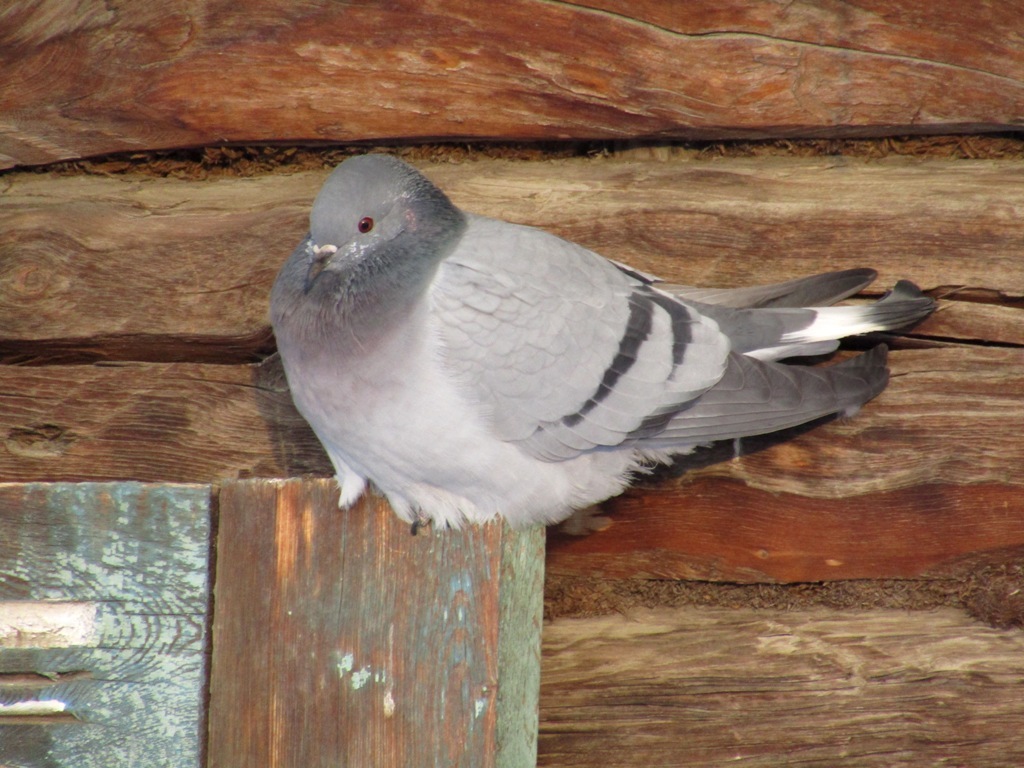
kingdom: Animalia
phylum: Chordata
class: Aves
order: Columbiformes
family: Columbidae
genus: Columba
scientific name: Columba rupestris
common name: Hill pigeon
